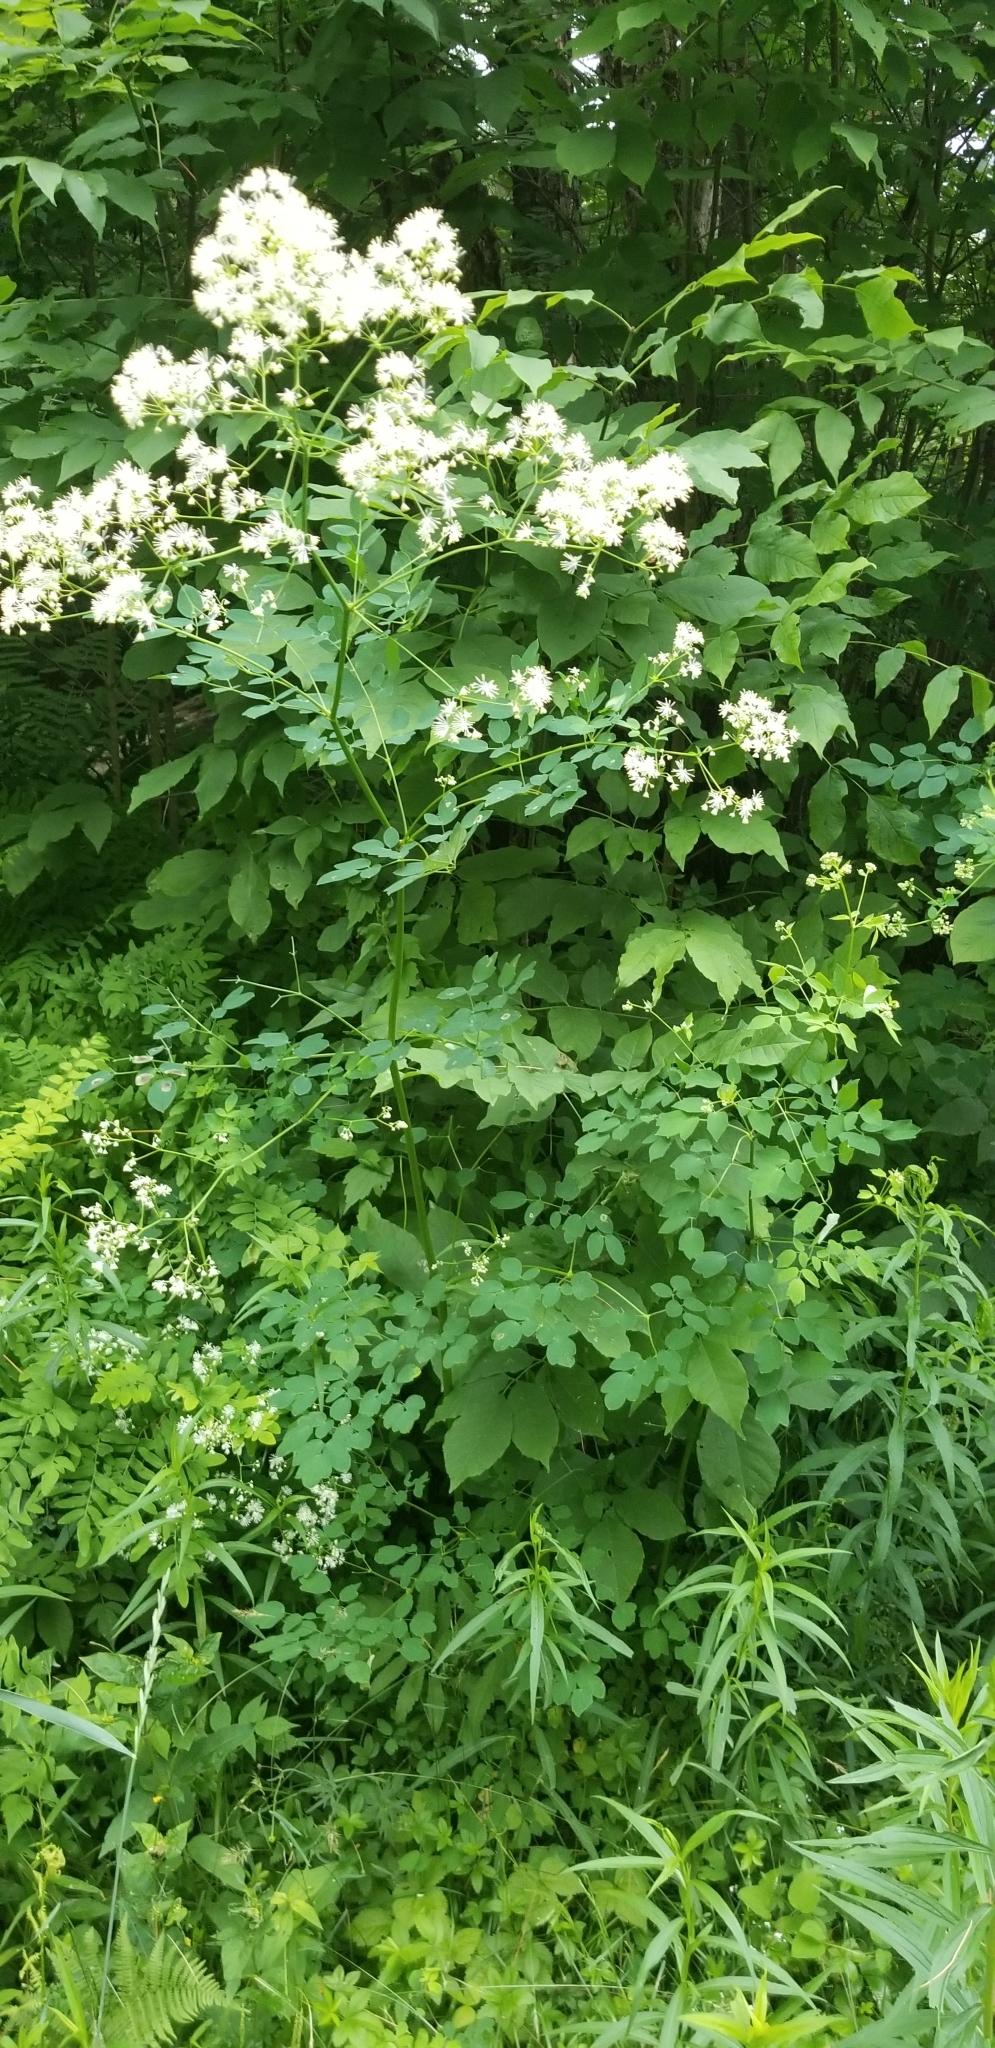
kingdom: Plantae
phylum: Tracheophyta
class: Magnoliopsida
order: Ranunculales
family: Ranunculaceae
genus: Thalictrum
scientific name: Thalictrum pubescens
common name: King-of-the-meadow
